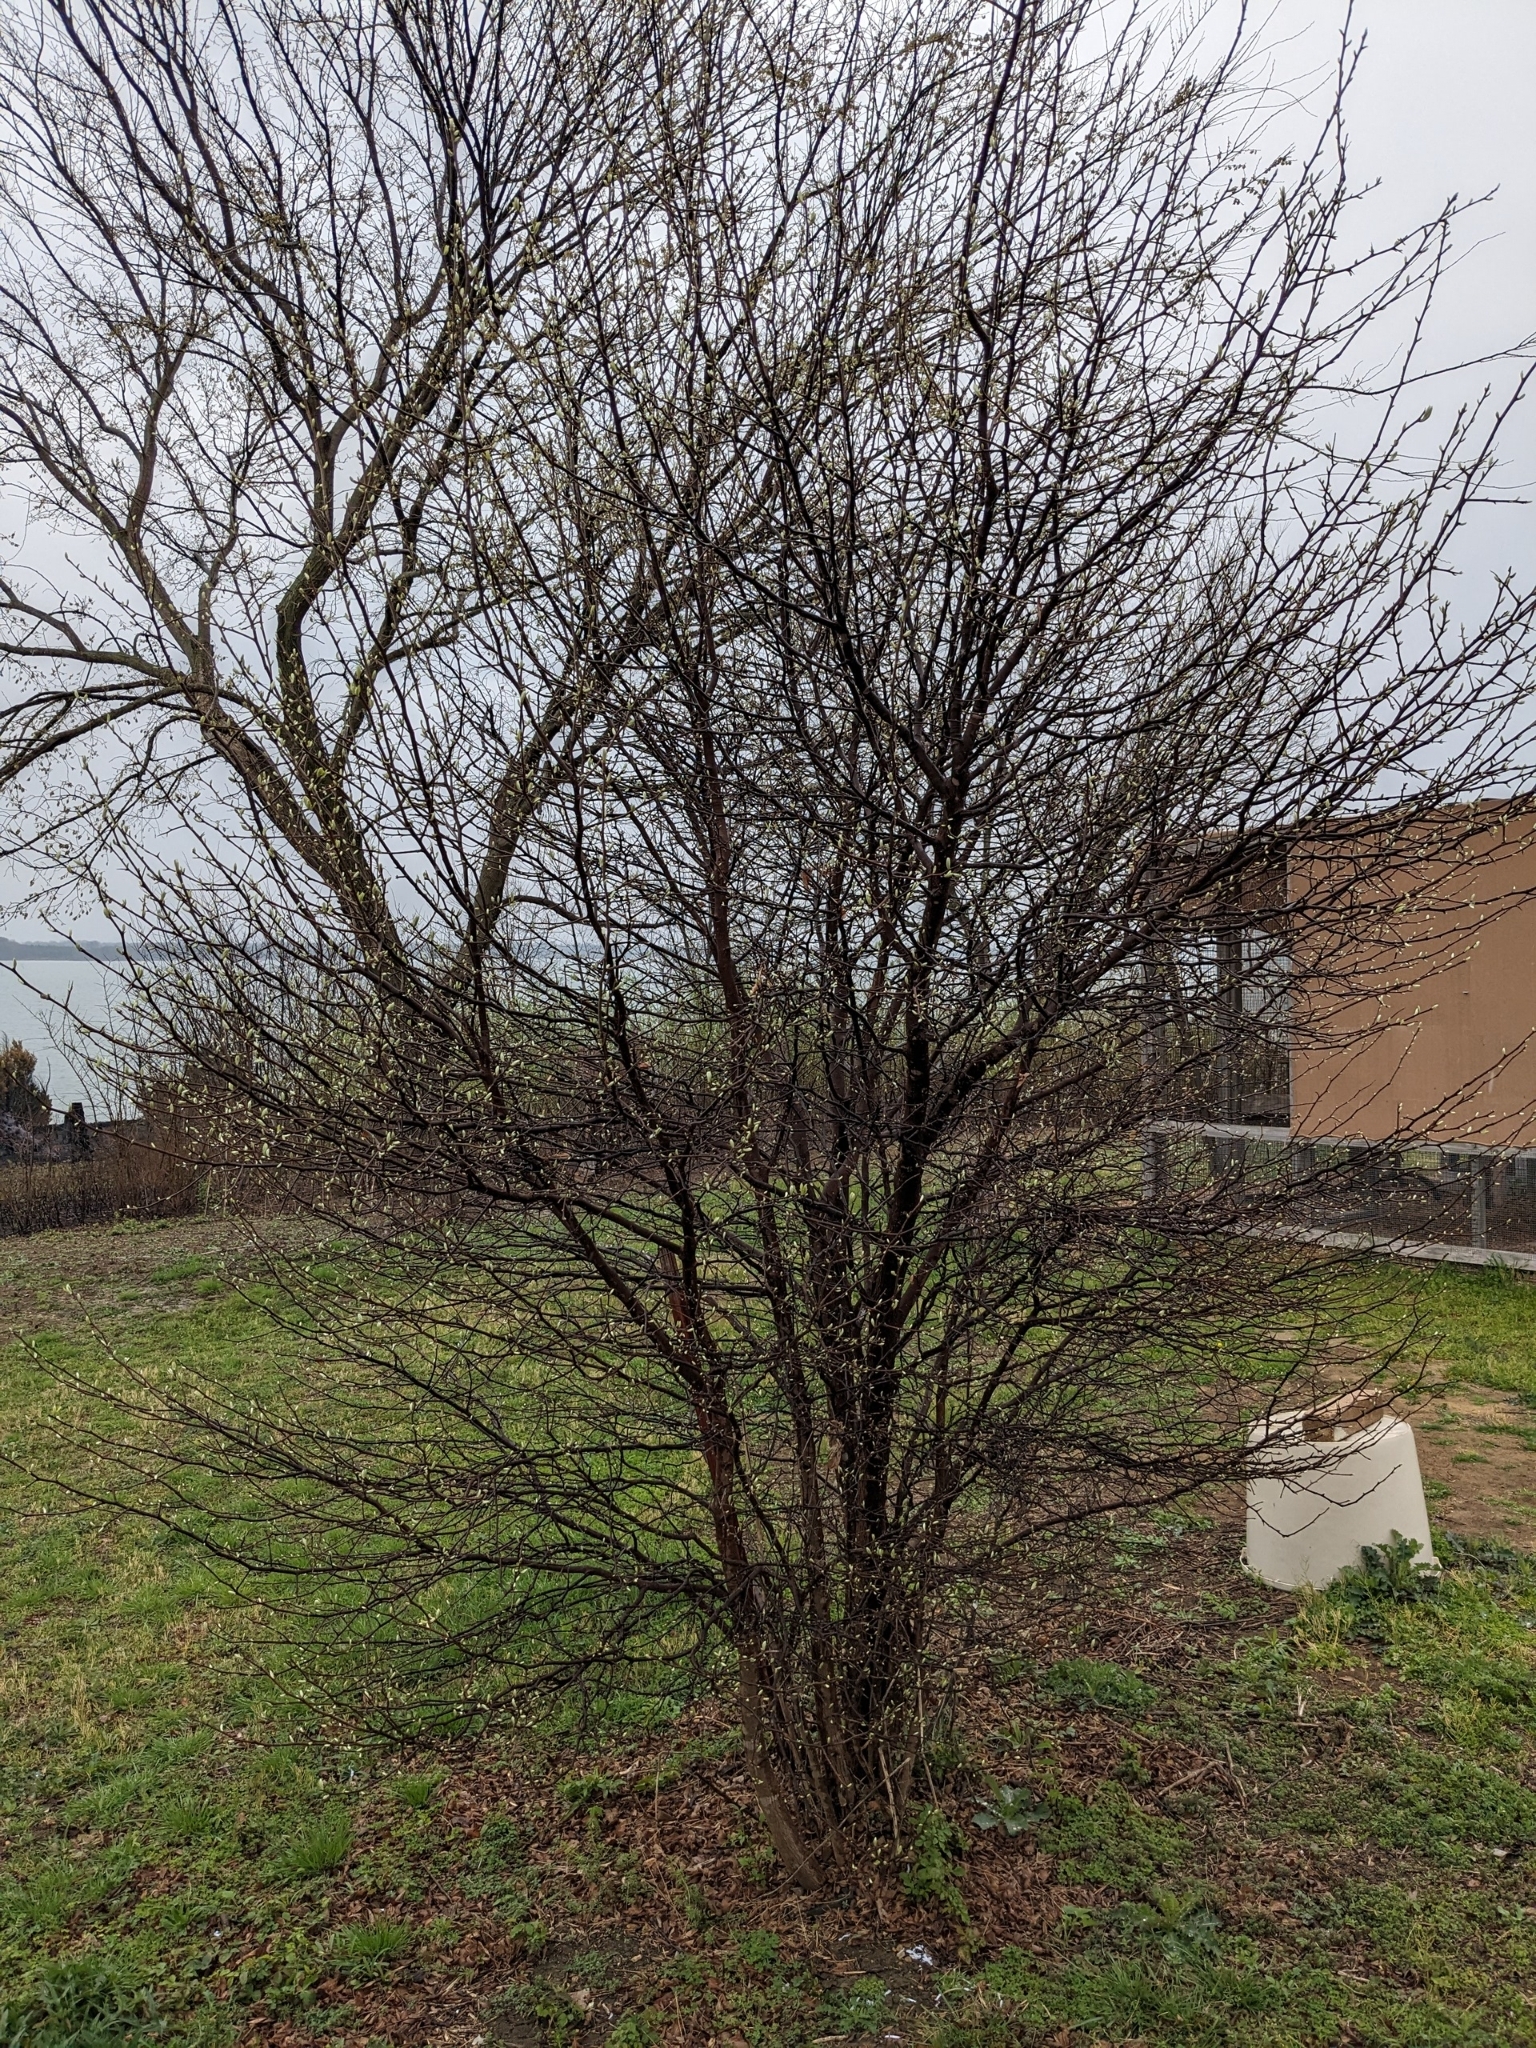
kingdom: Plantae
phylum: Tracheophyta
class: Magnoliopsida
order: Ericales
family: Sapotaceae
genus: Sideroxylon
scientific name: Sideroxylon lanuginosum
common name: Chittamwood
